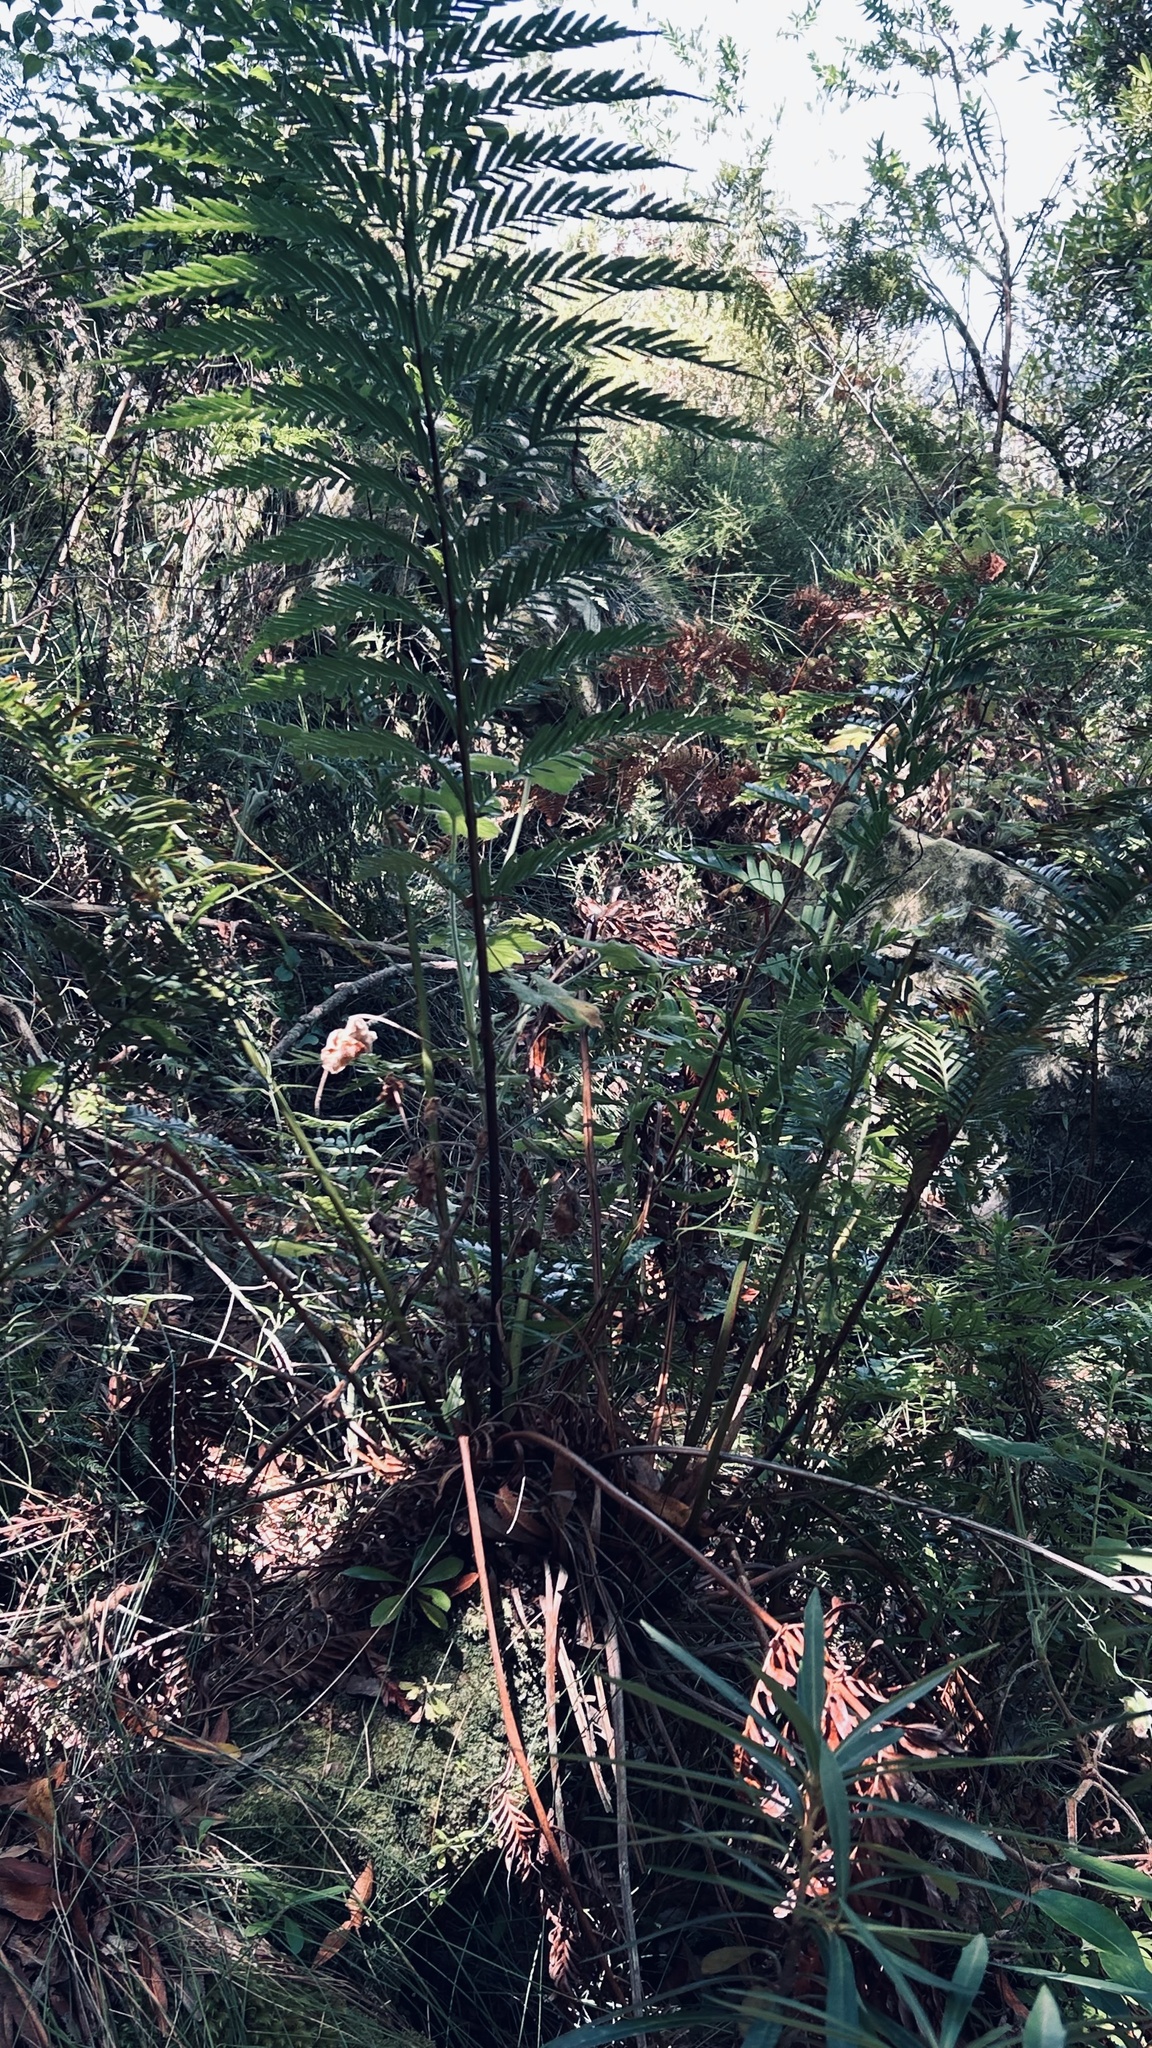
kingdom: Plantae
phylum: Tracheophyta
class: Polypodiopsida
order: Osmundales
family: Osmundaceae
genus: Todea
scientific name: Todea barbara
